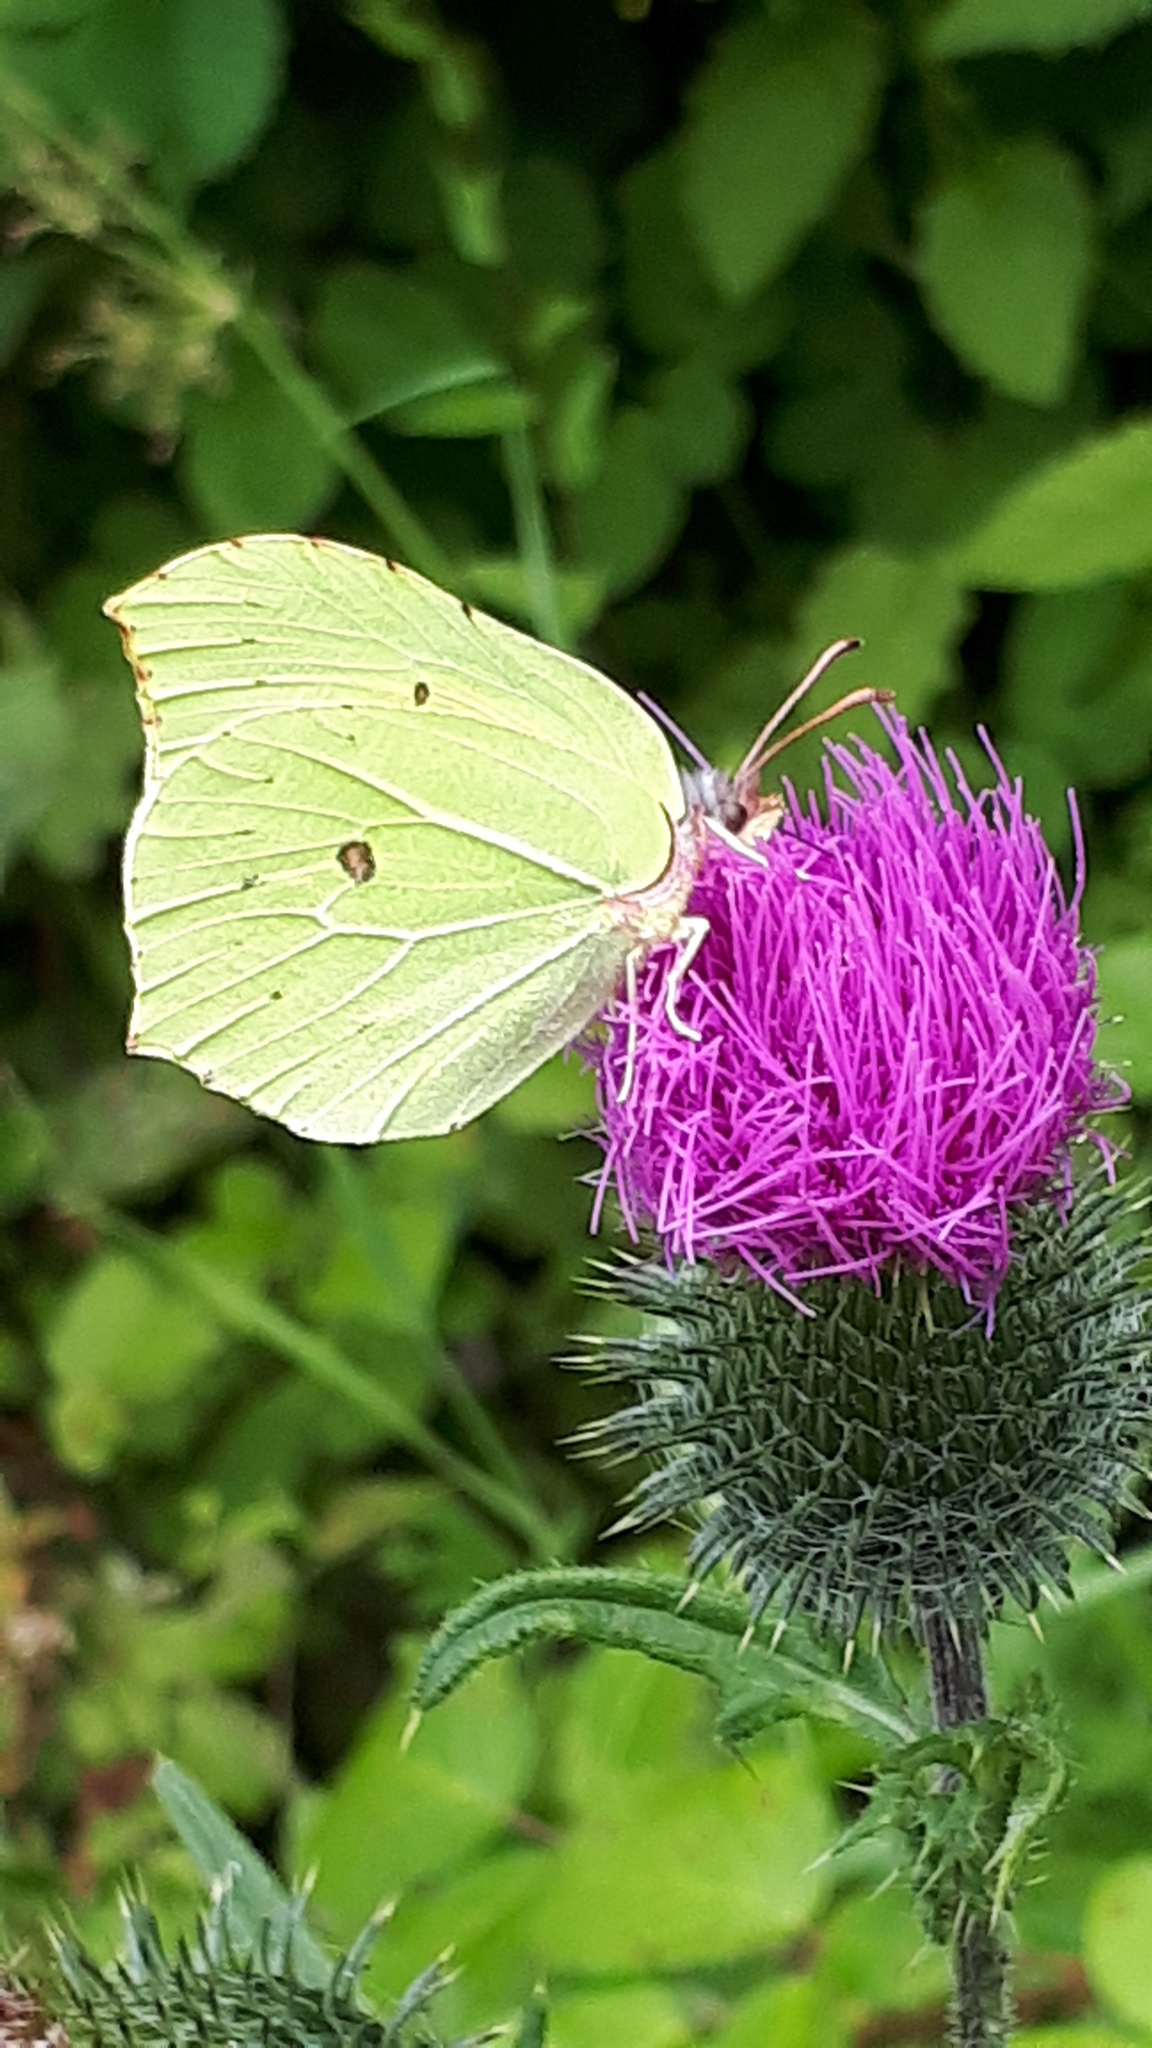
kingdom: Animalia
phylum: Arthropoda
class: Insecta
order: Lepidoptera
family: Pieridae
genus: Gonepteryx
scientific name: Gonepteryx rhamni
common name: Brimstone
